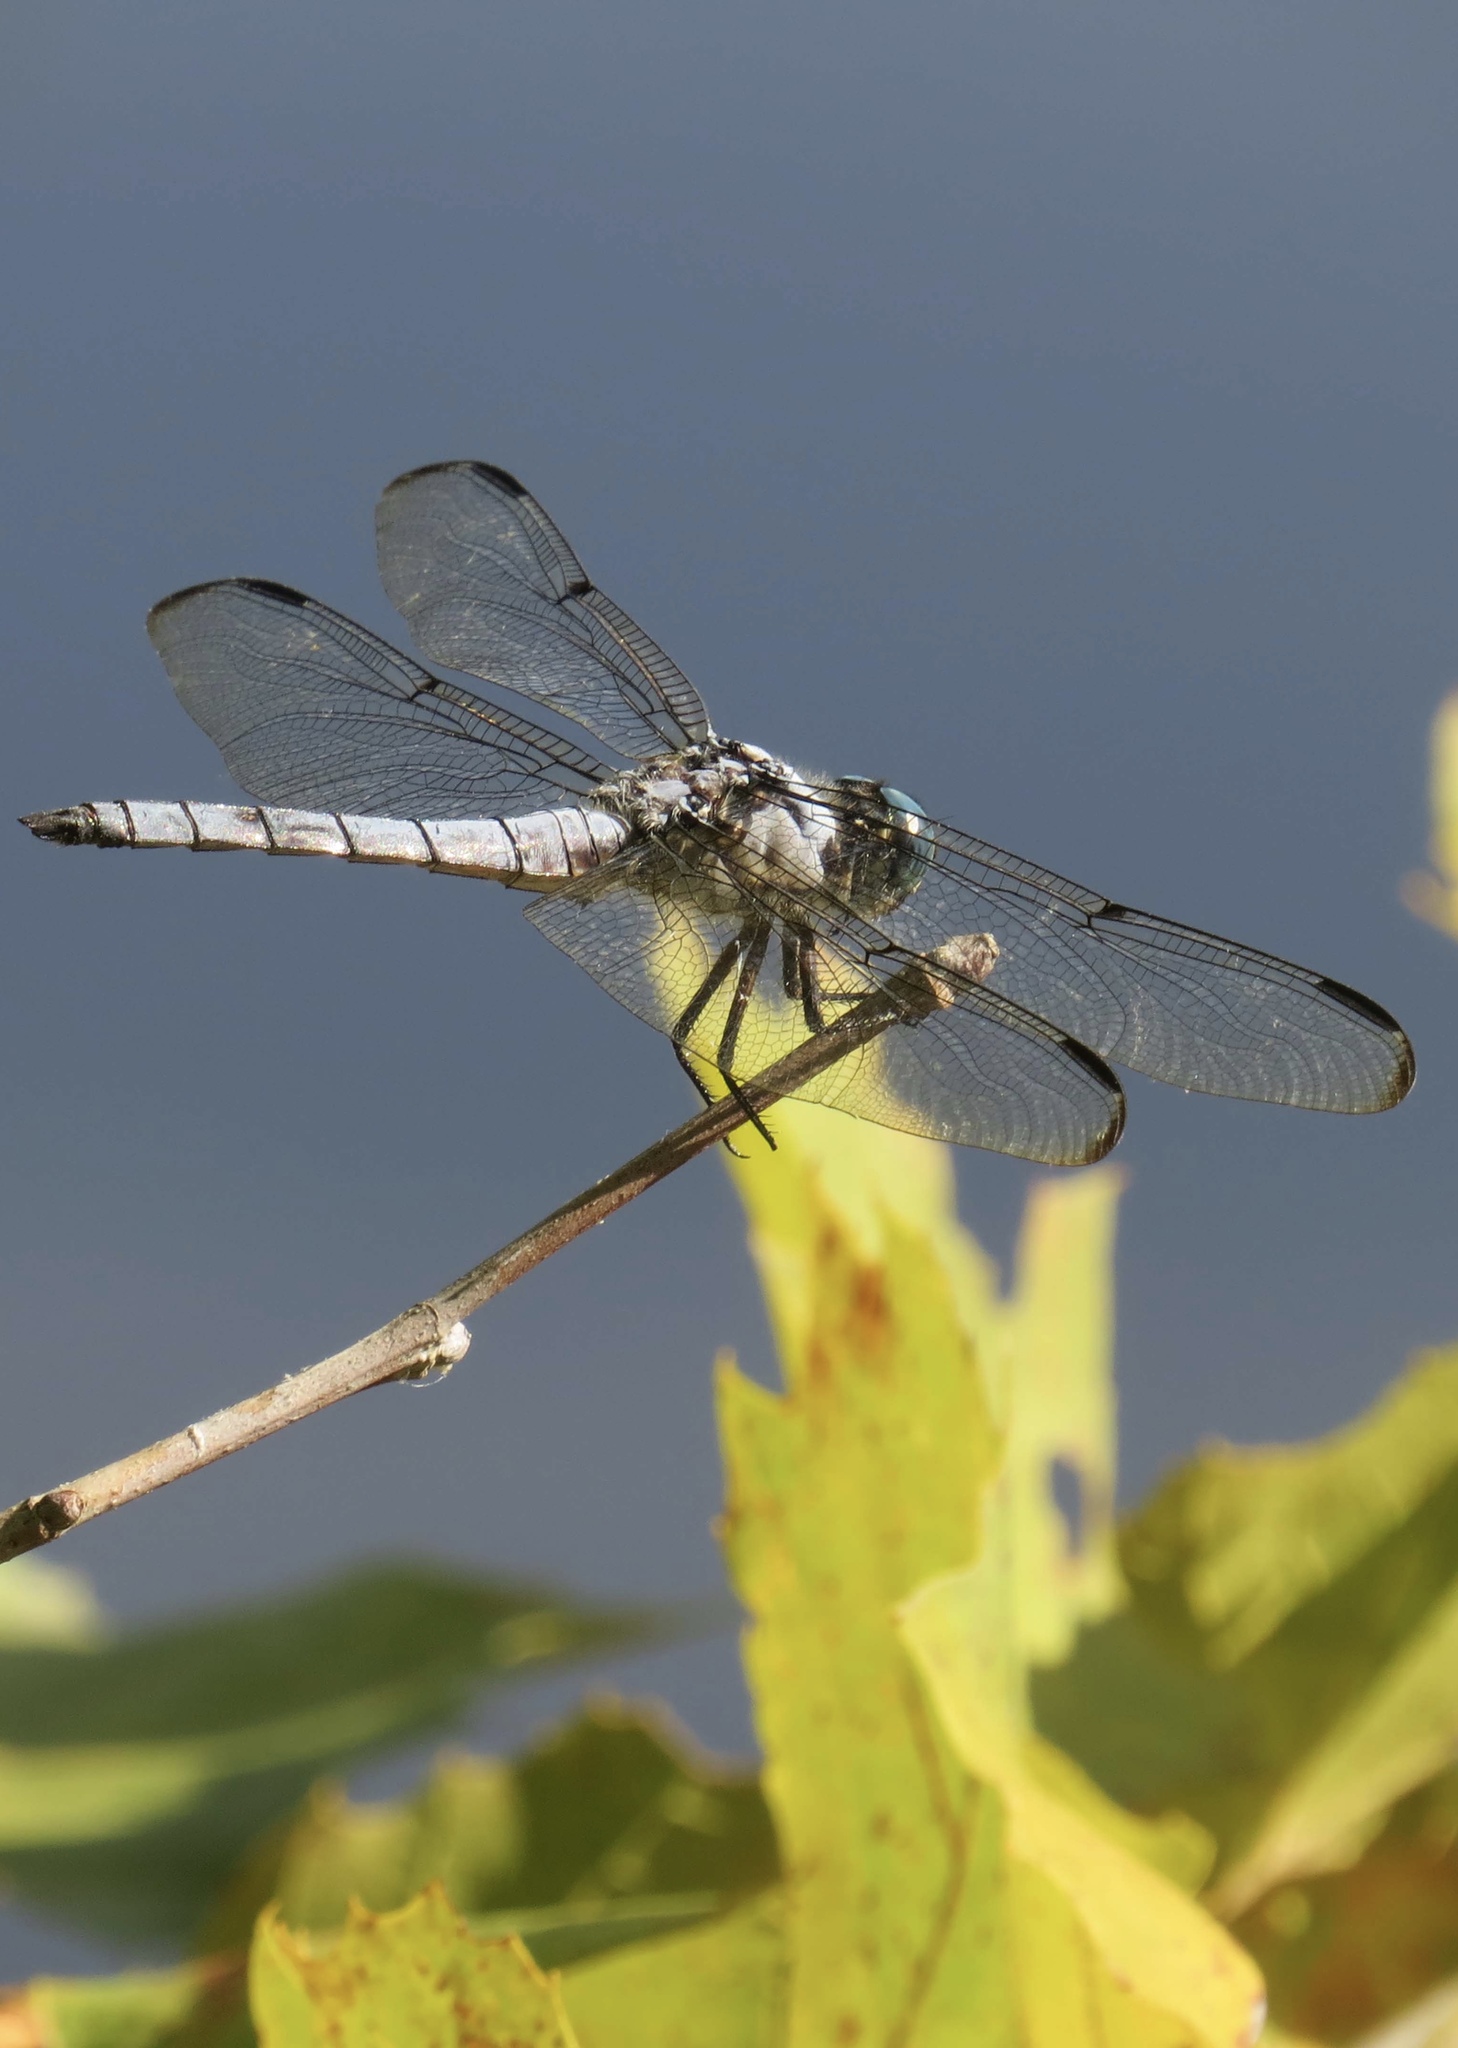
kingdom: Animalia
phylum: Arthropoda
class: Insecta
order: Odonata
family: Libellulidae
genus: Libellula
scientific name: Libellula vibrans
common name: Great blue skimmer
